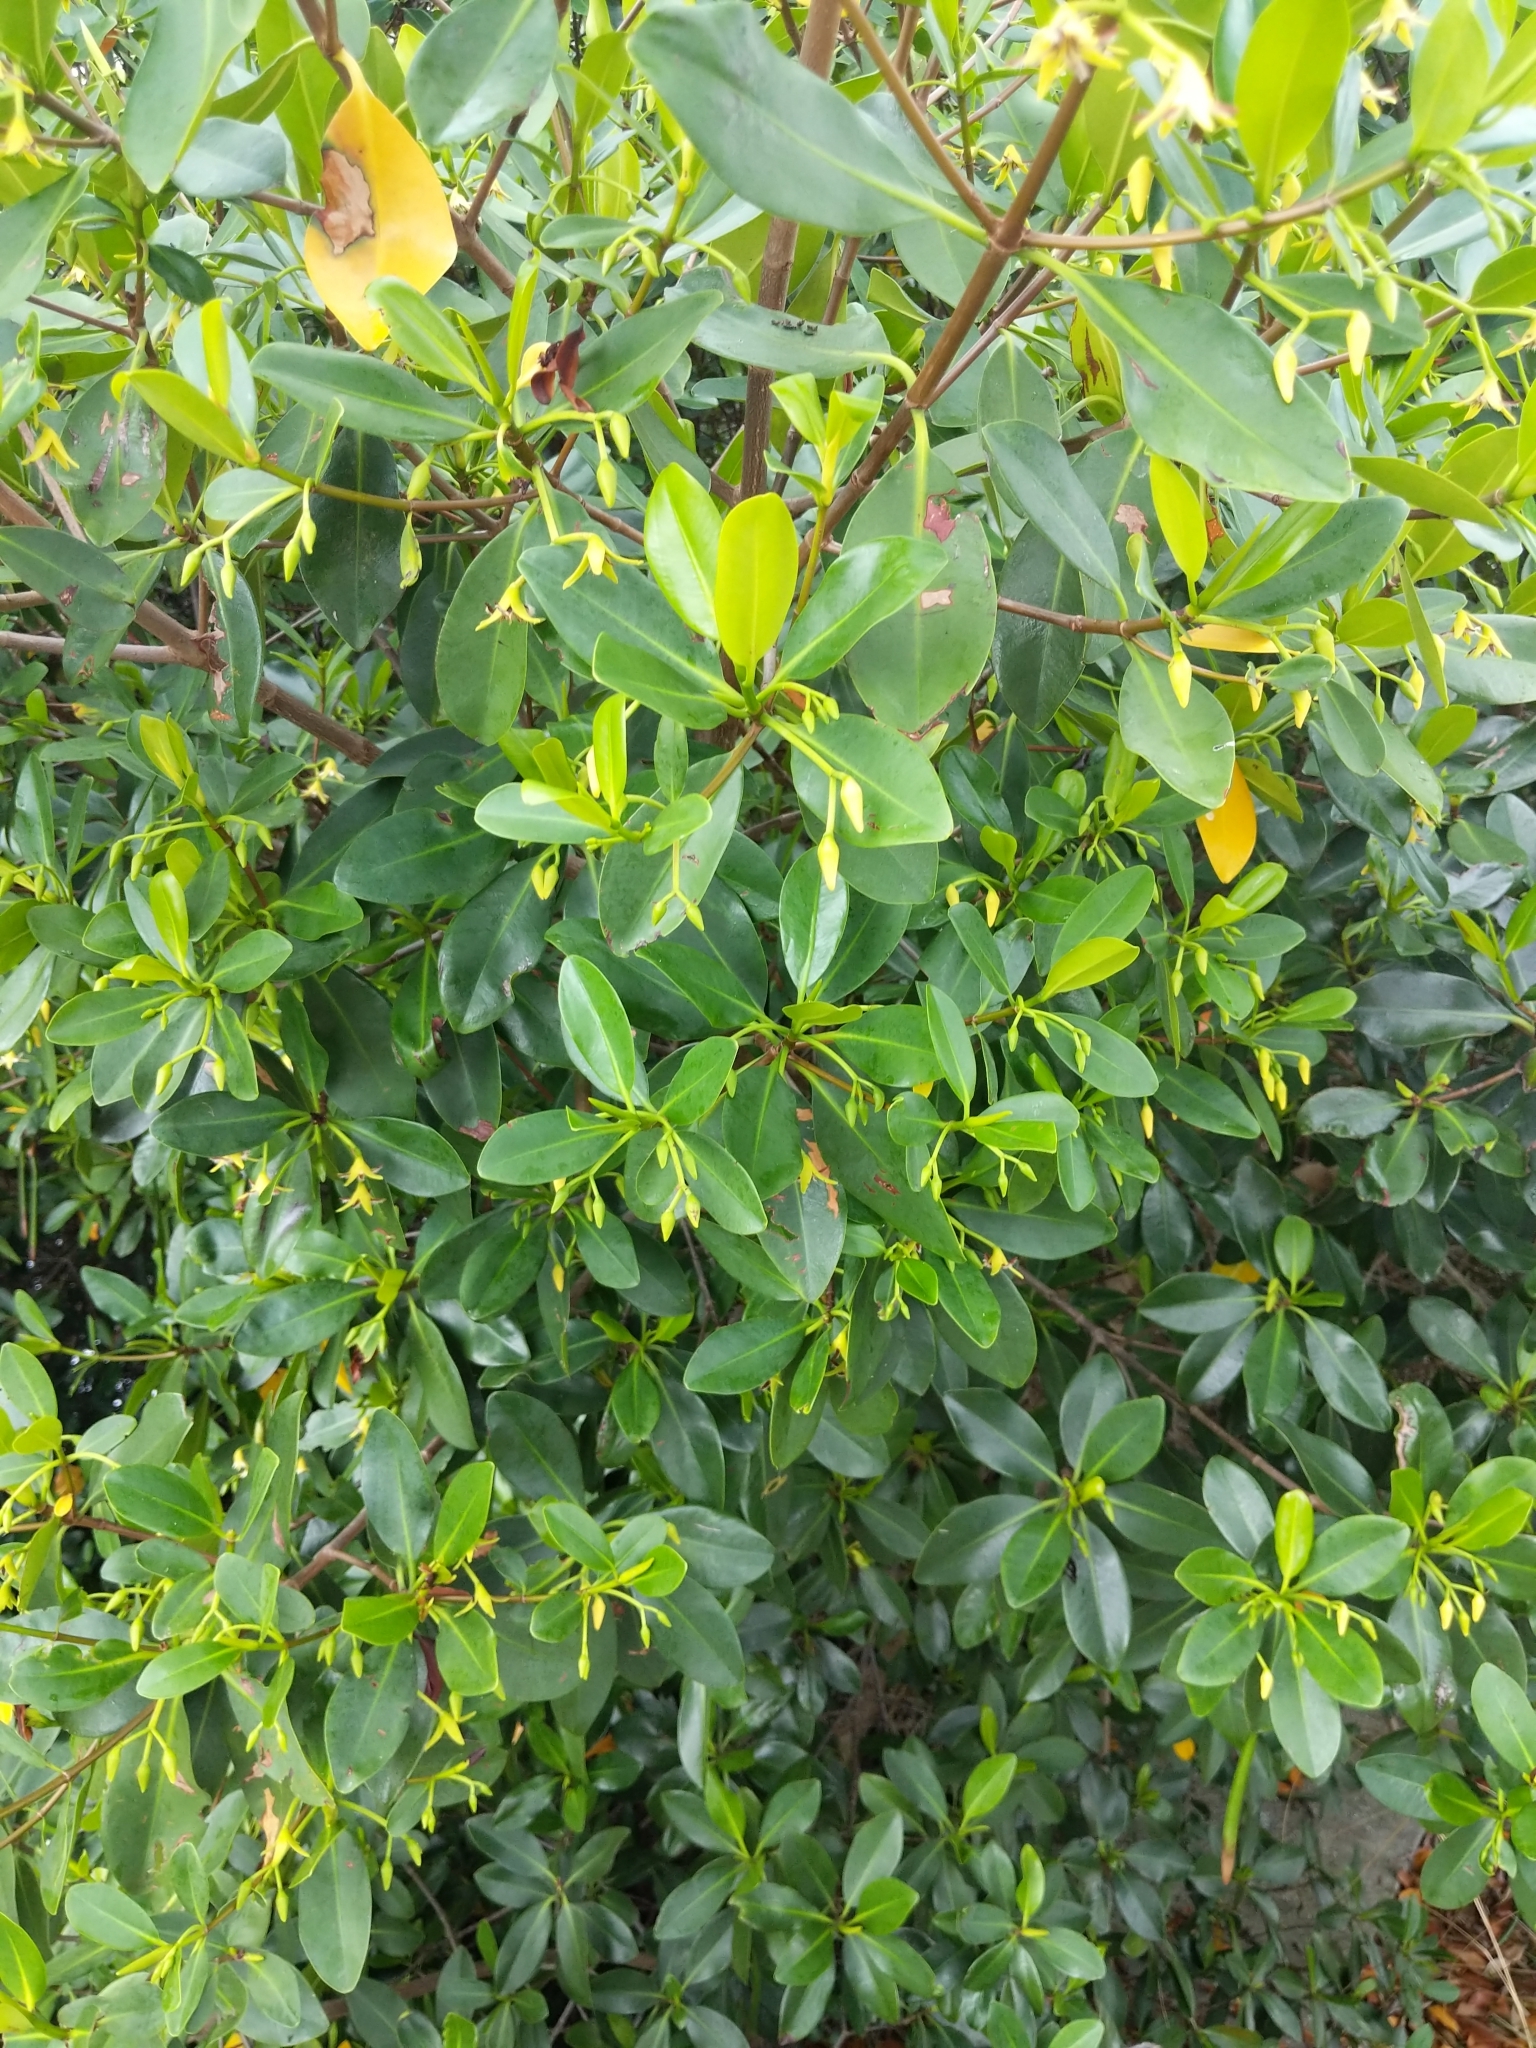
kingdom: Plantae
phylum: Tracheophyta
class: Magnoliopsida
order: Malpighiales
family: Rhizophoraceae
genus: Rhizophora
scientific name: Rhizophora mangle
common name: Red mangrove
